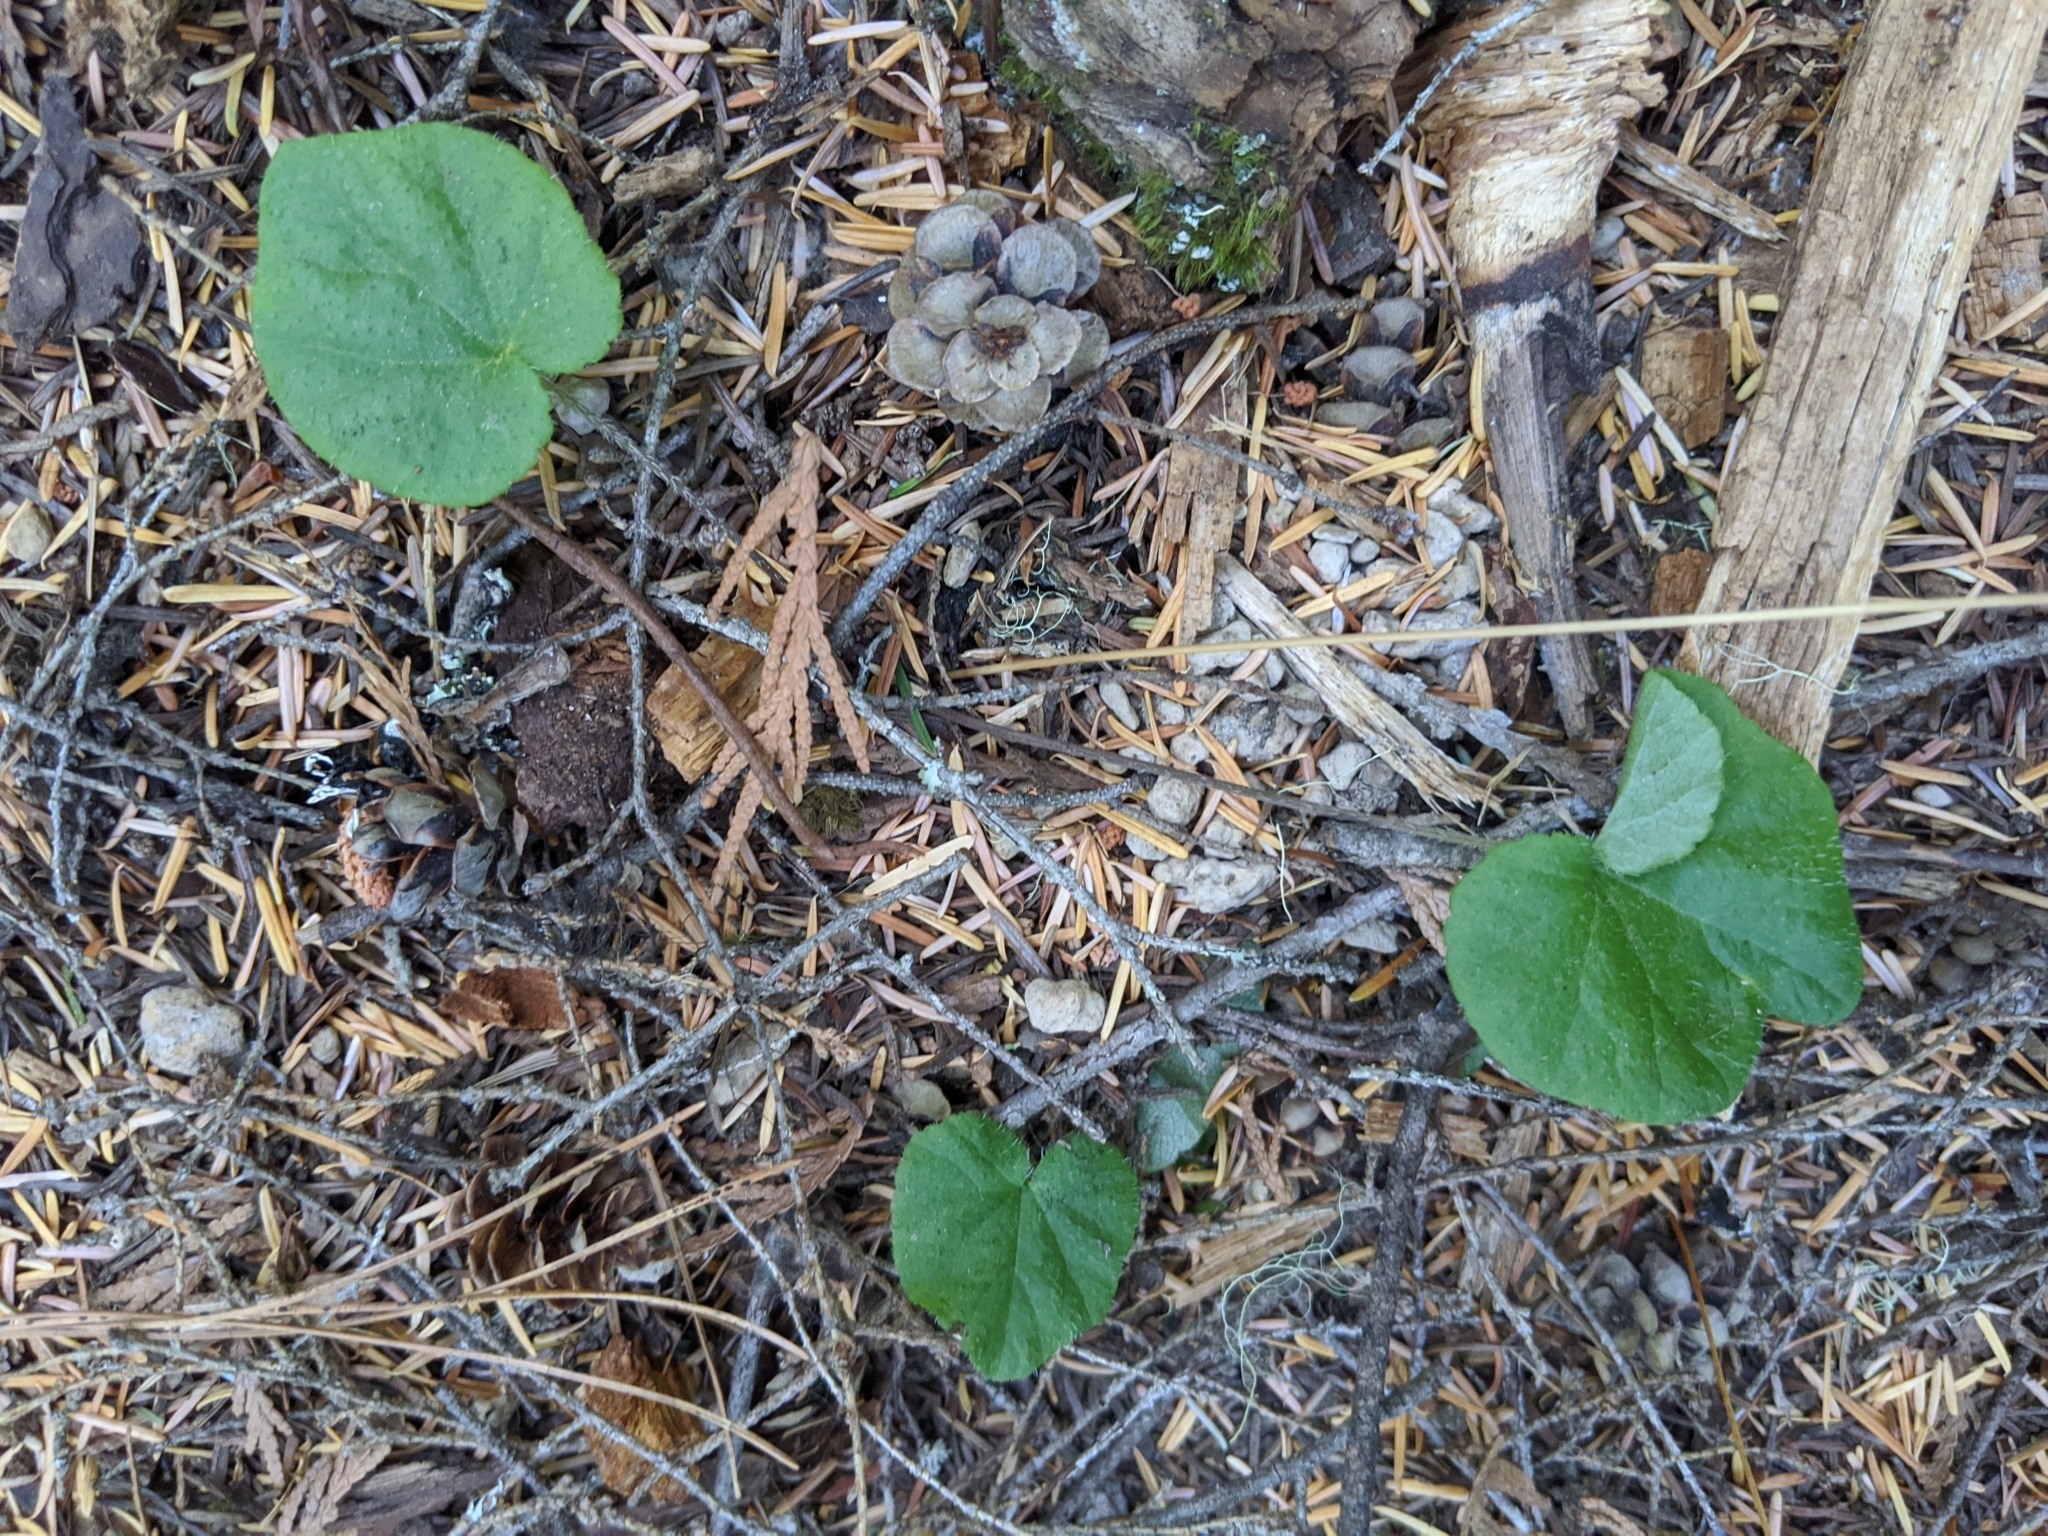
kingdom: Plantae
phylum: Tracheophyta
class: Magnoliopsida
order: Saxifragales
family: Saxifragaceae
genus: Ozomelis
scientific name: Ozomelis trifida
